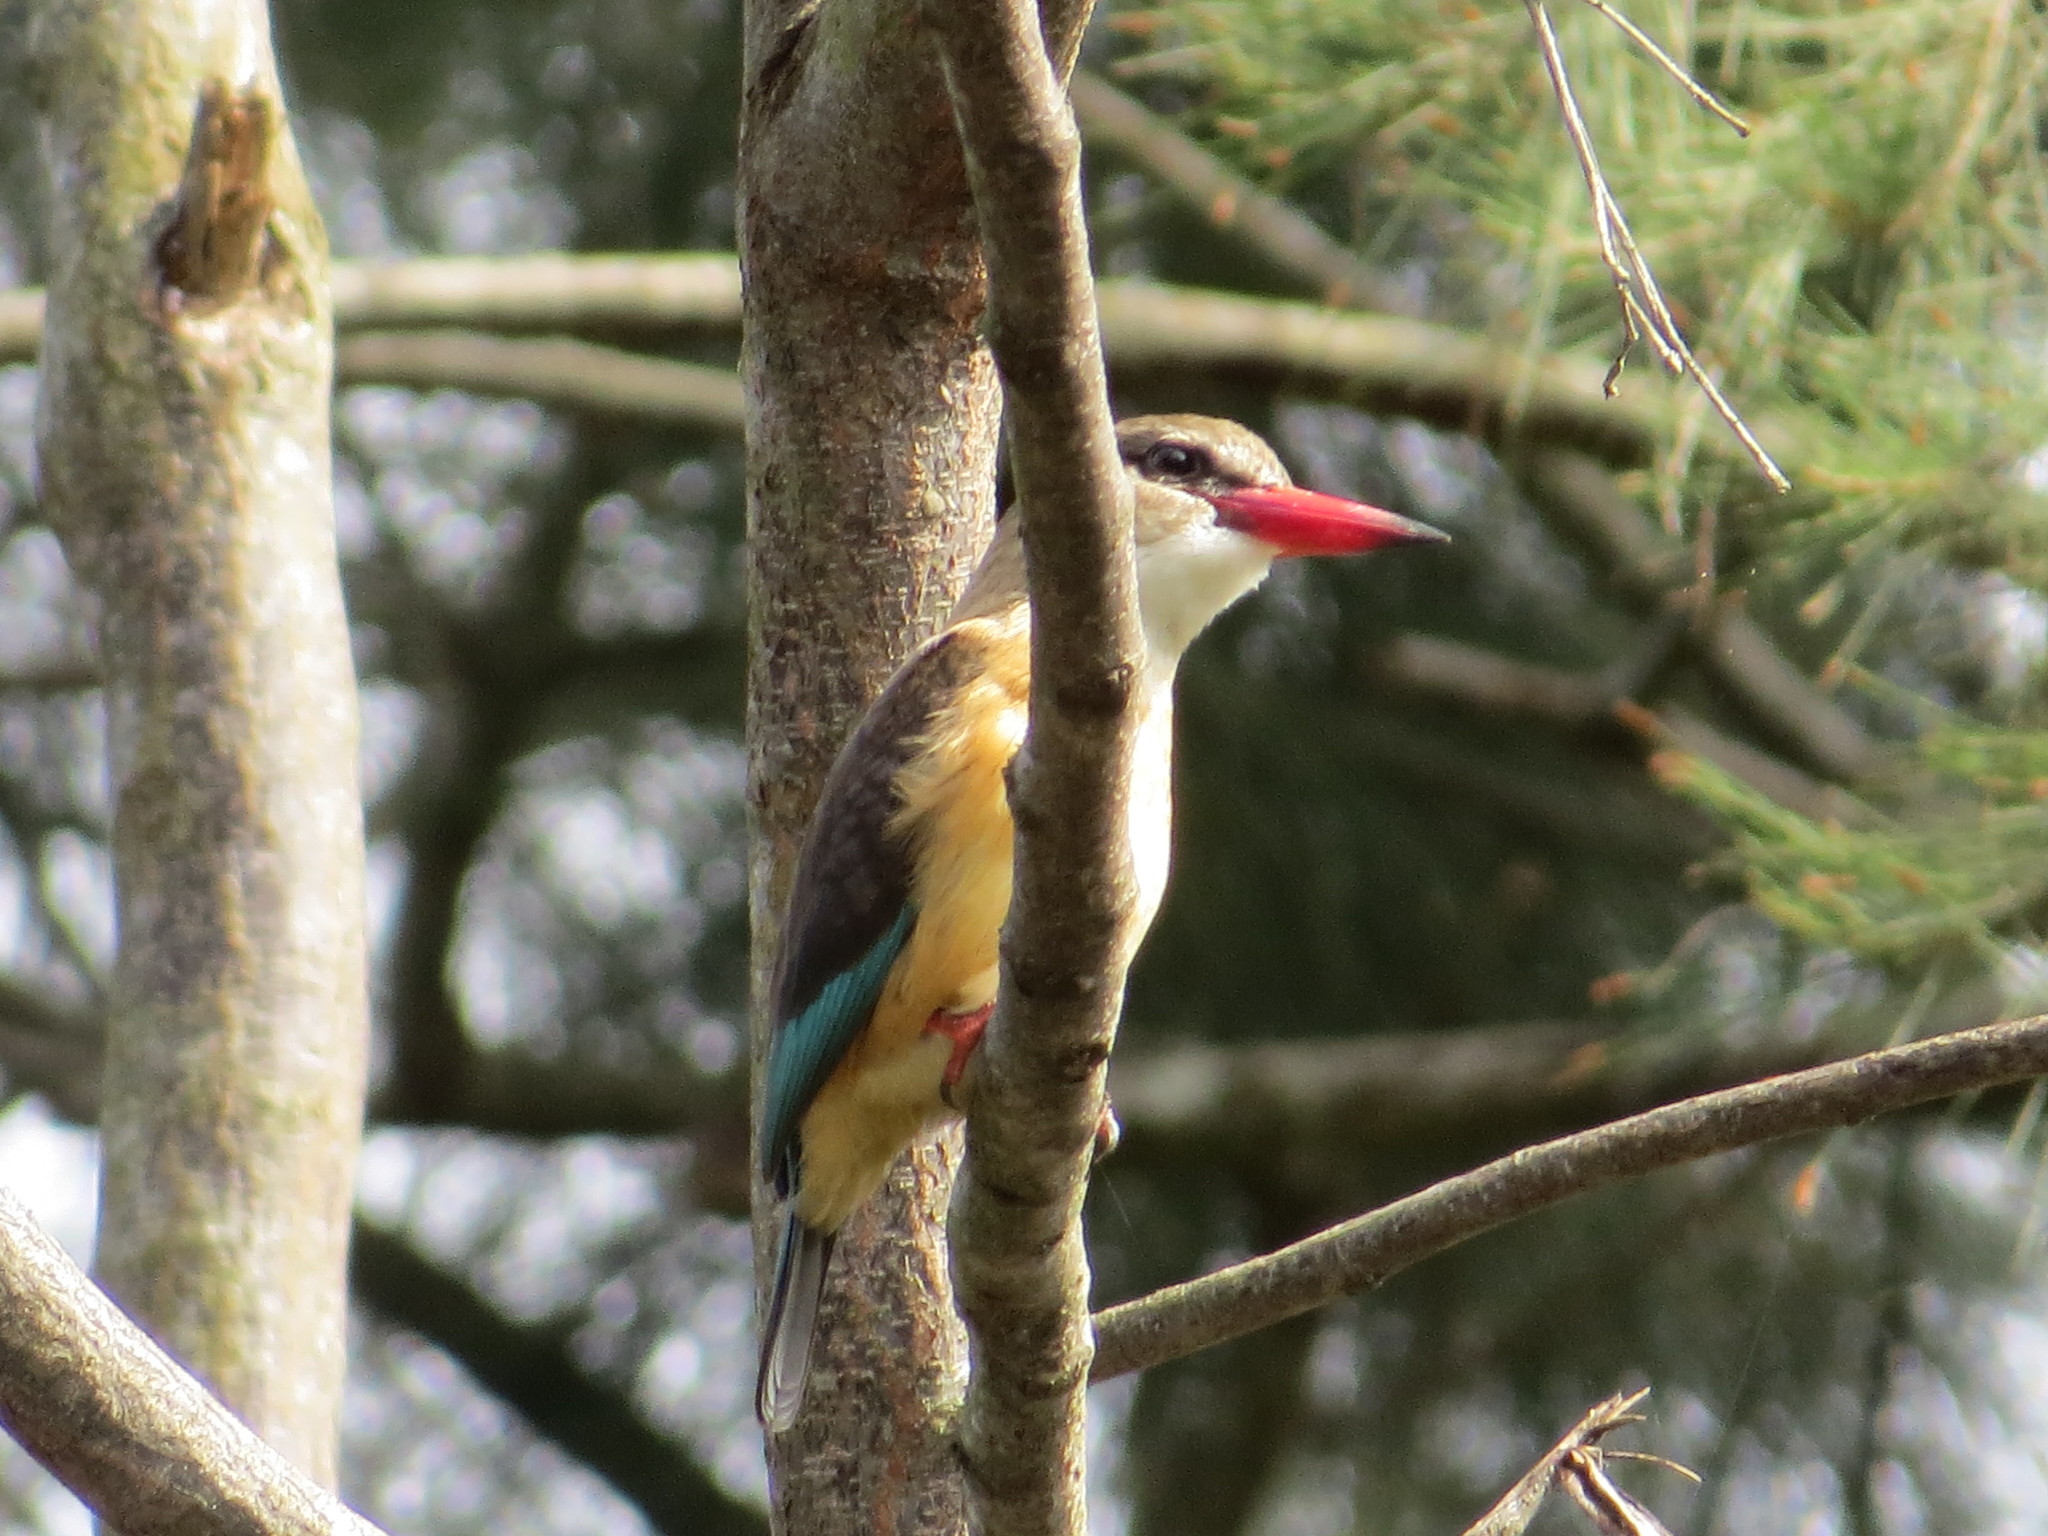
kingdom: Animalia
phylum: Chordata
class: Aves
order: Coraciiformes
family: Alcedinidae
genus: Halcyon
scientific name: Halcyon albiventris
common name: Brown-hooded kingfisher
